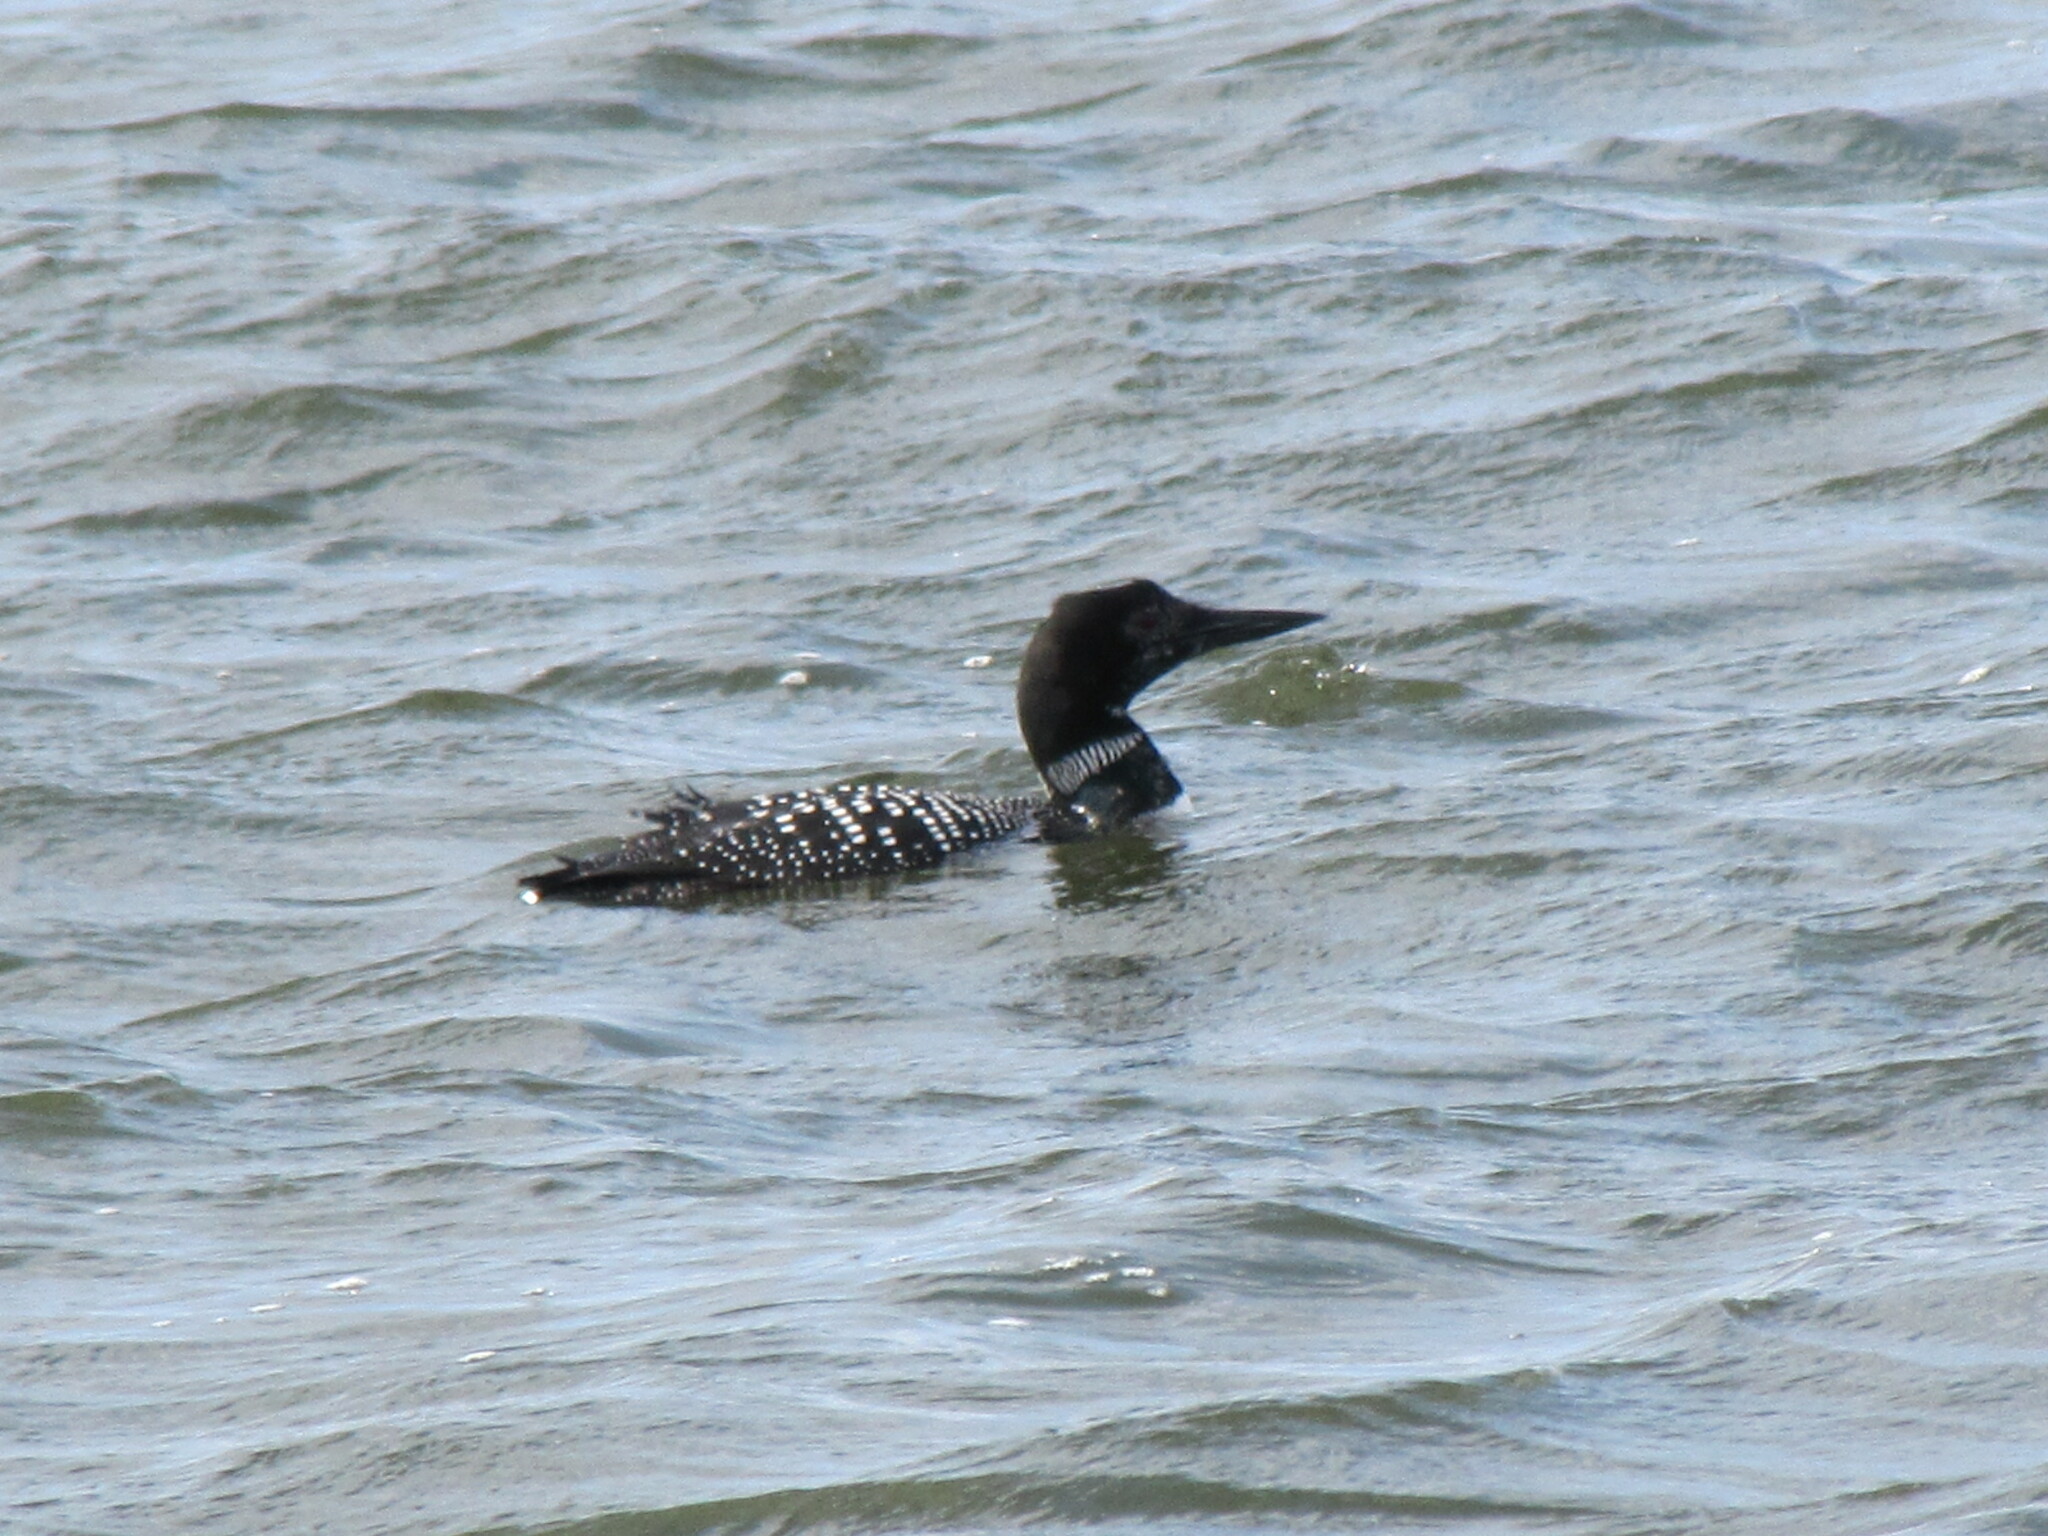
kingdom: Animalia
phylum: Chordata
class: Aves
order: Gaviiformes
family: Gaviidae
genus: Gavia
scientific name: Gavia immer
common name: Common loon
